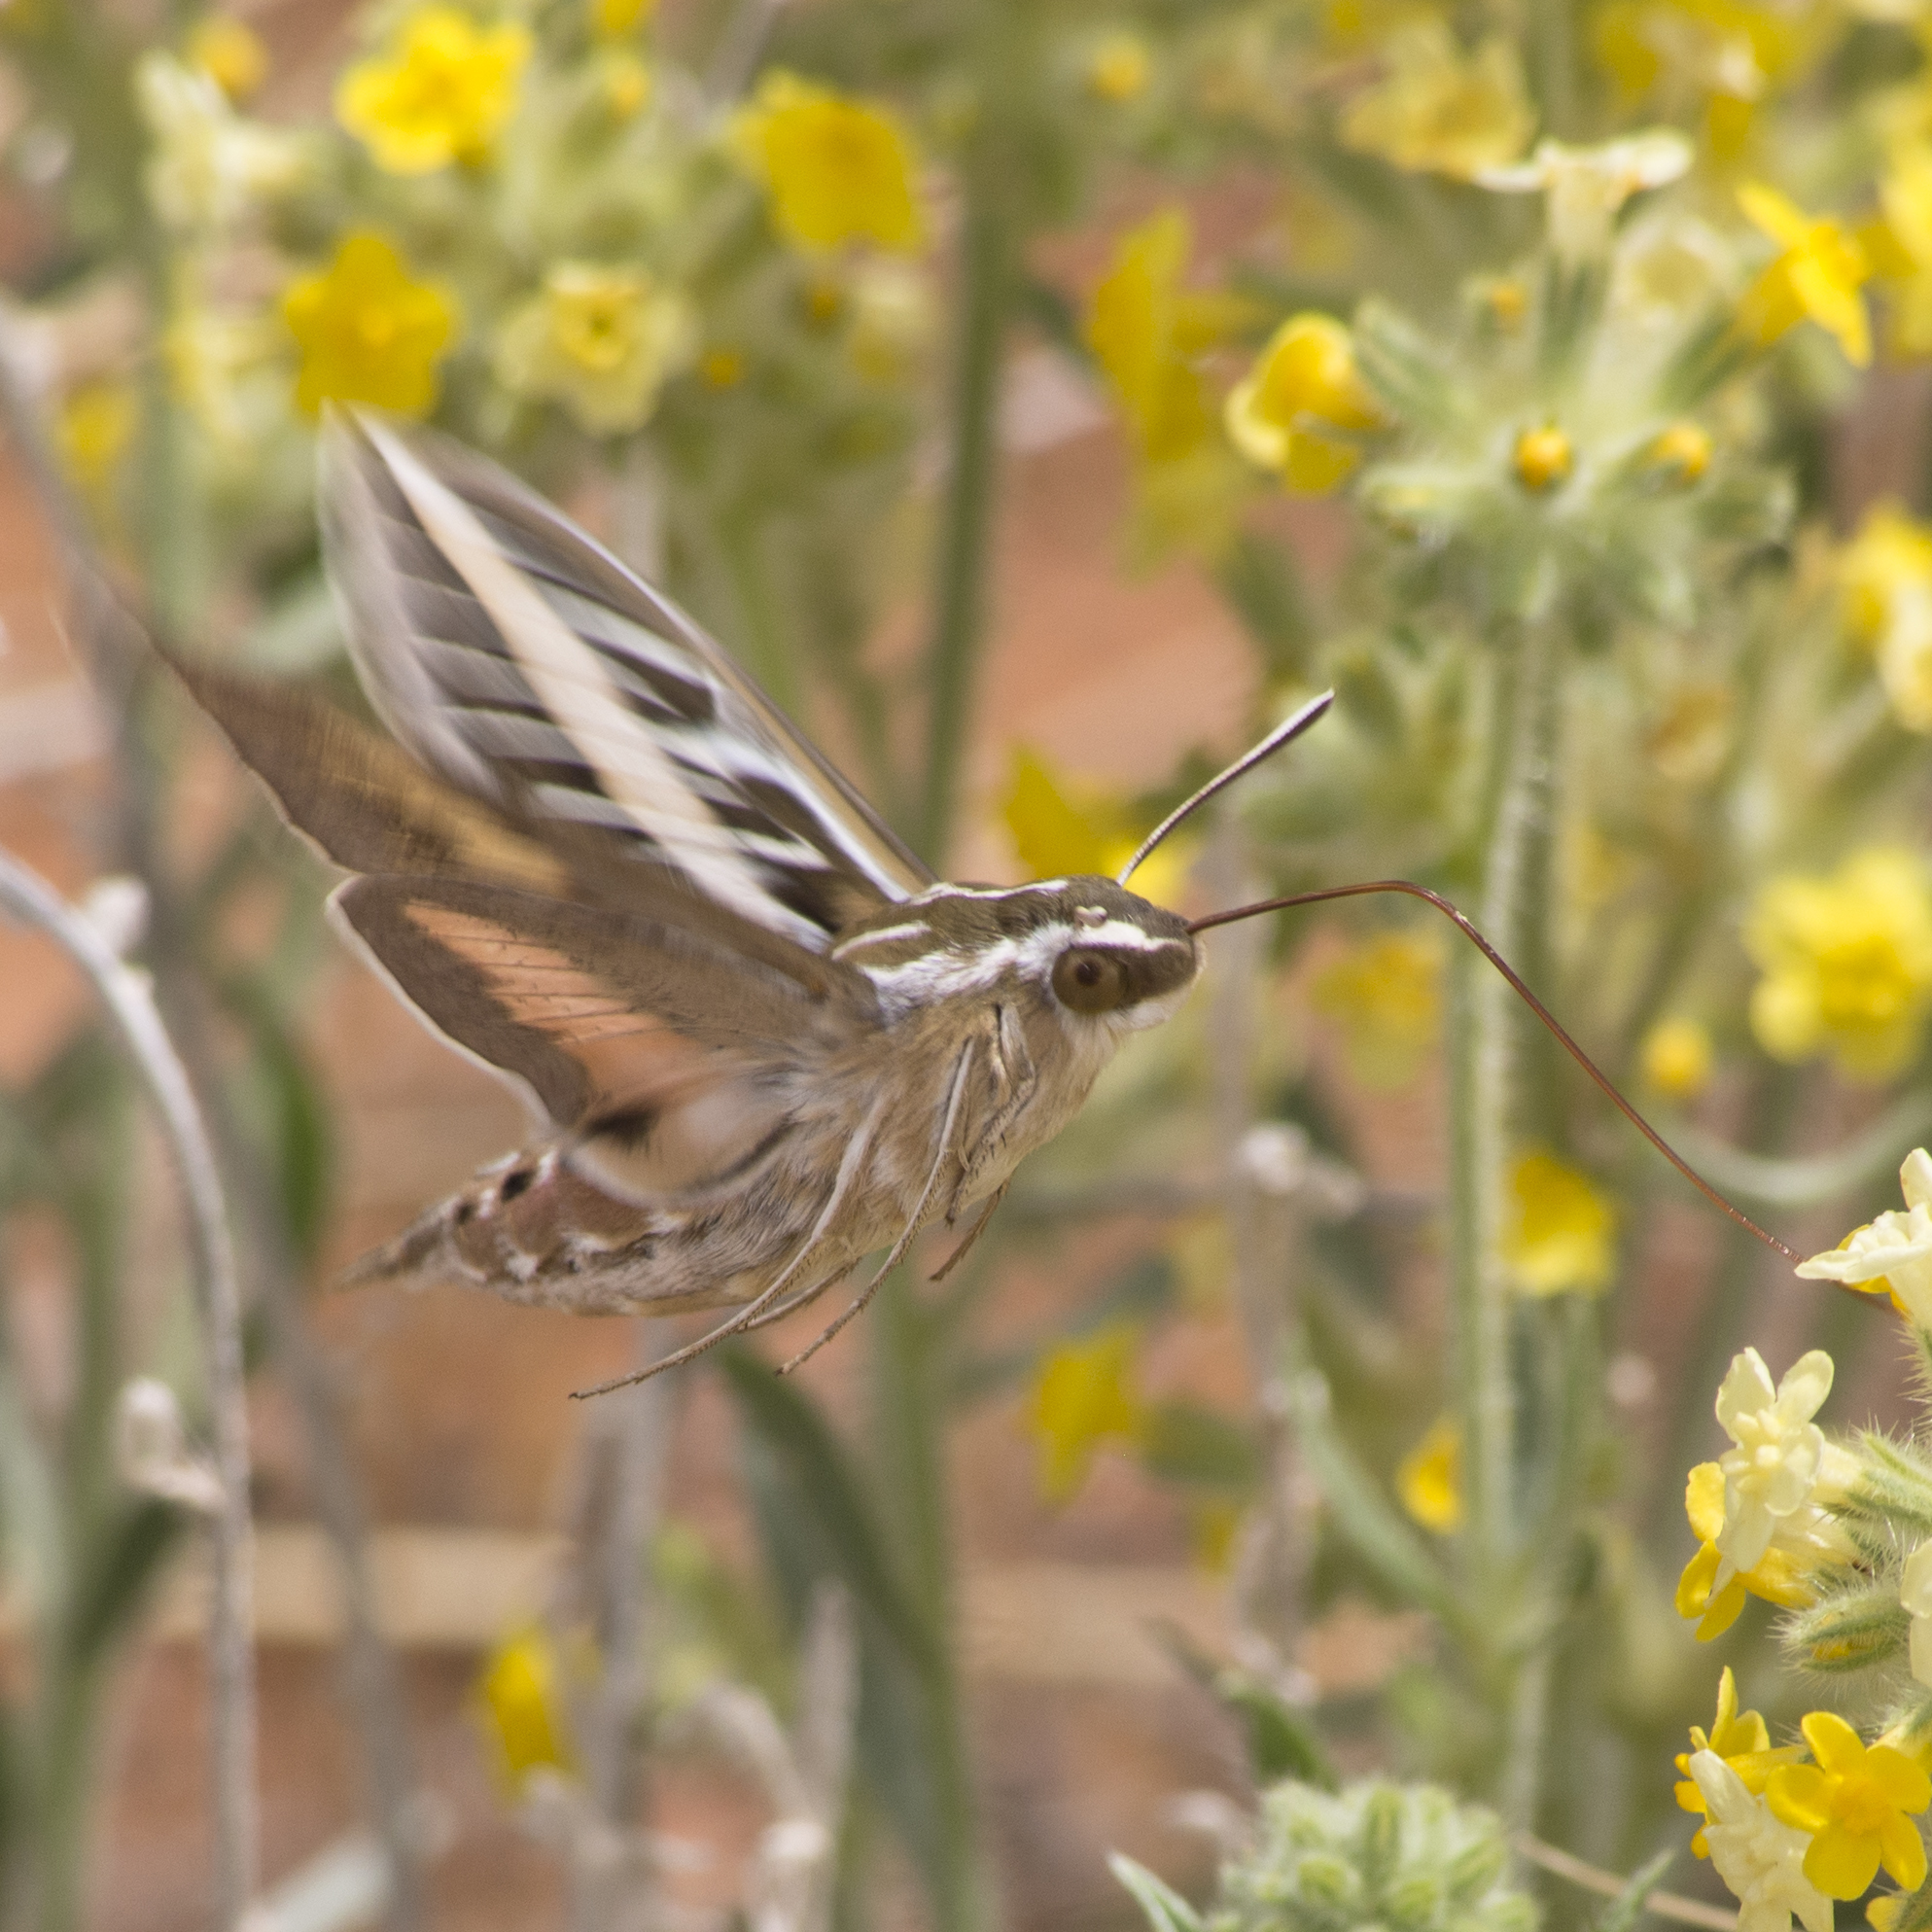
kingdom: Animalia
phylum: Arthropoda
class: Insecta
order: Lepidoptera
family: Sphingidae
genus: Hyles
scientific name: Hyles lineata
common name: White-lined sphinx
